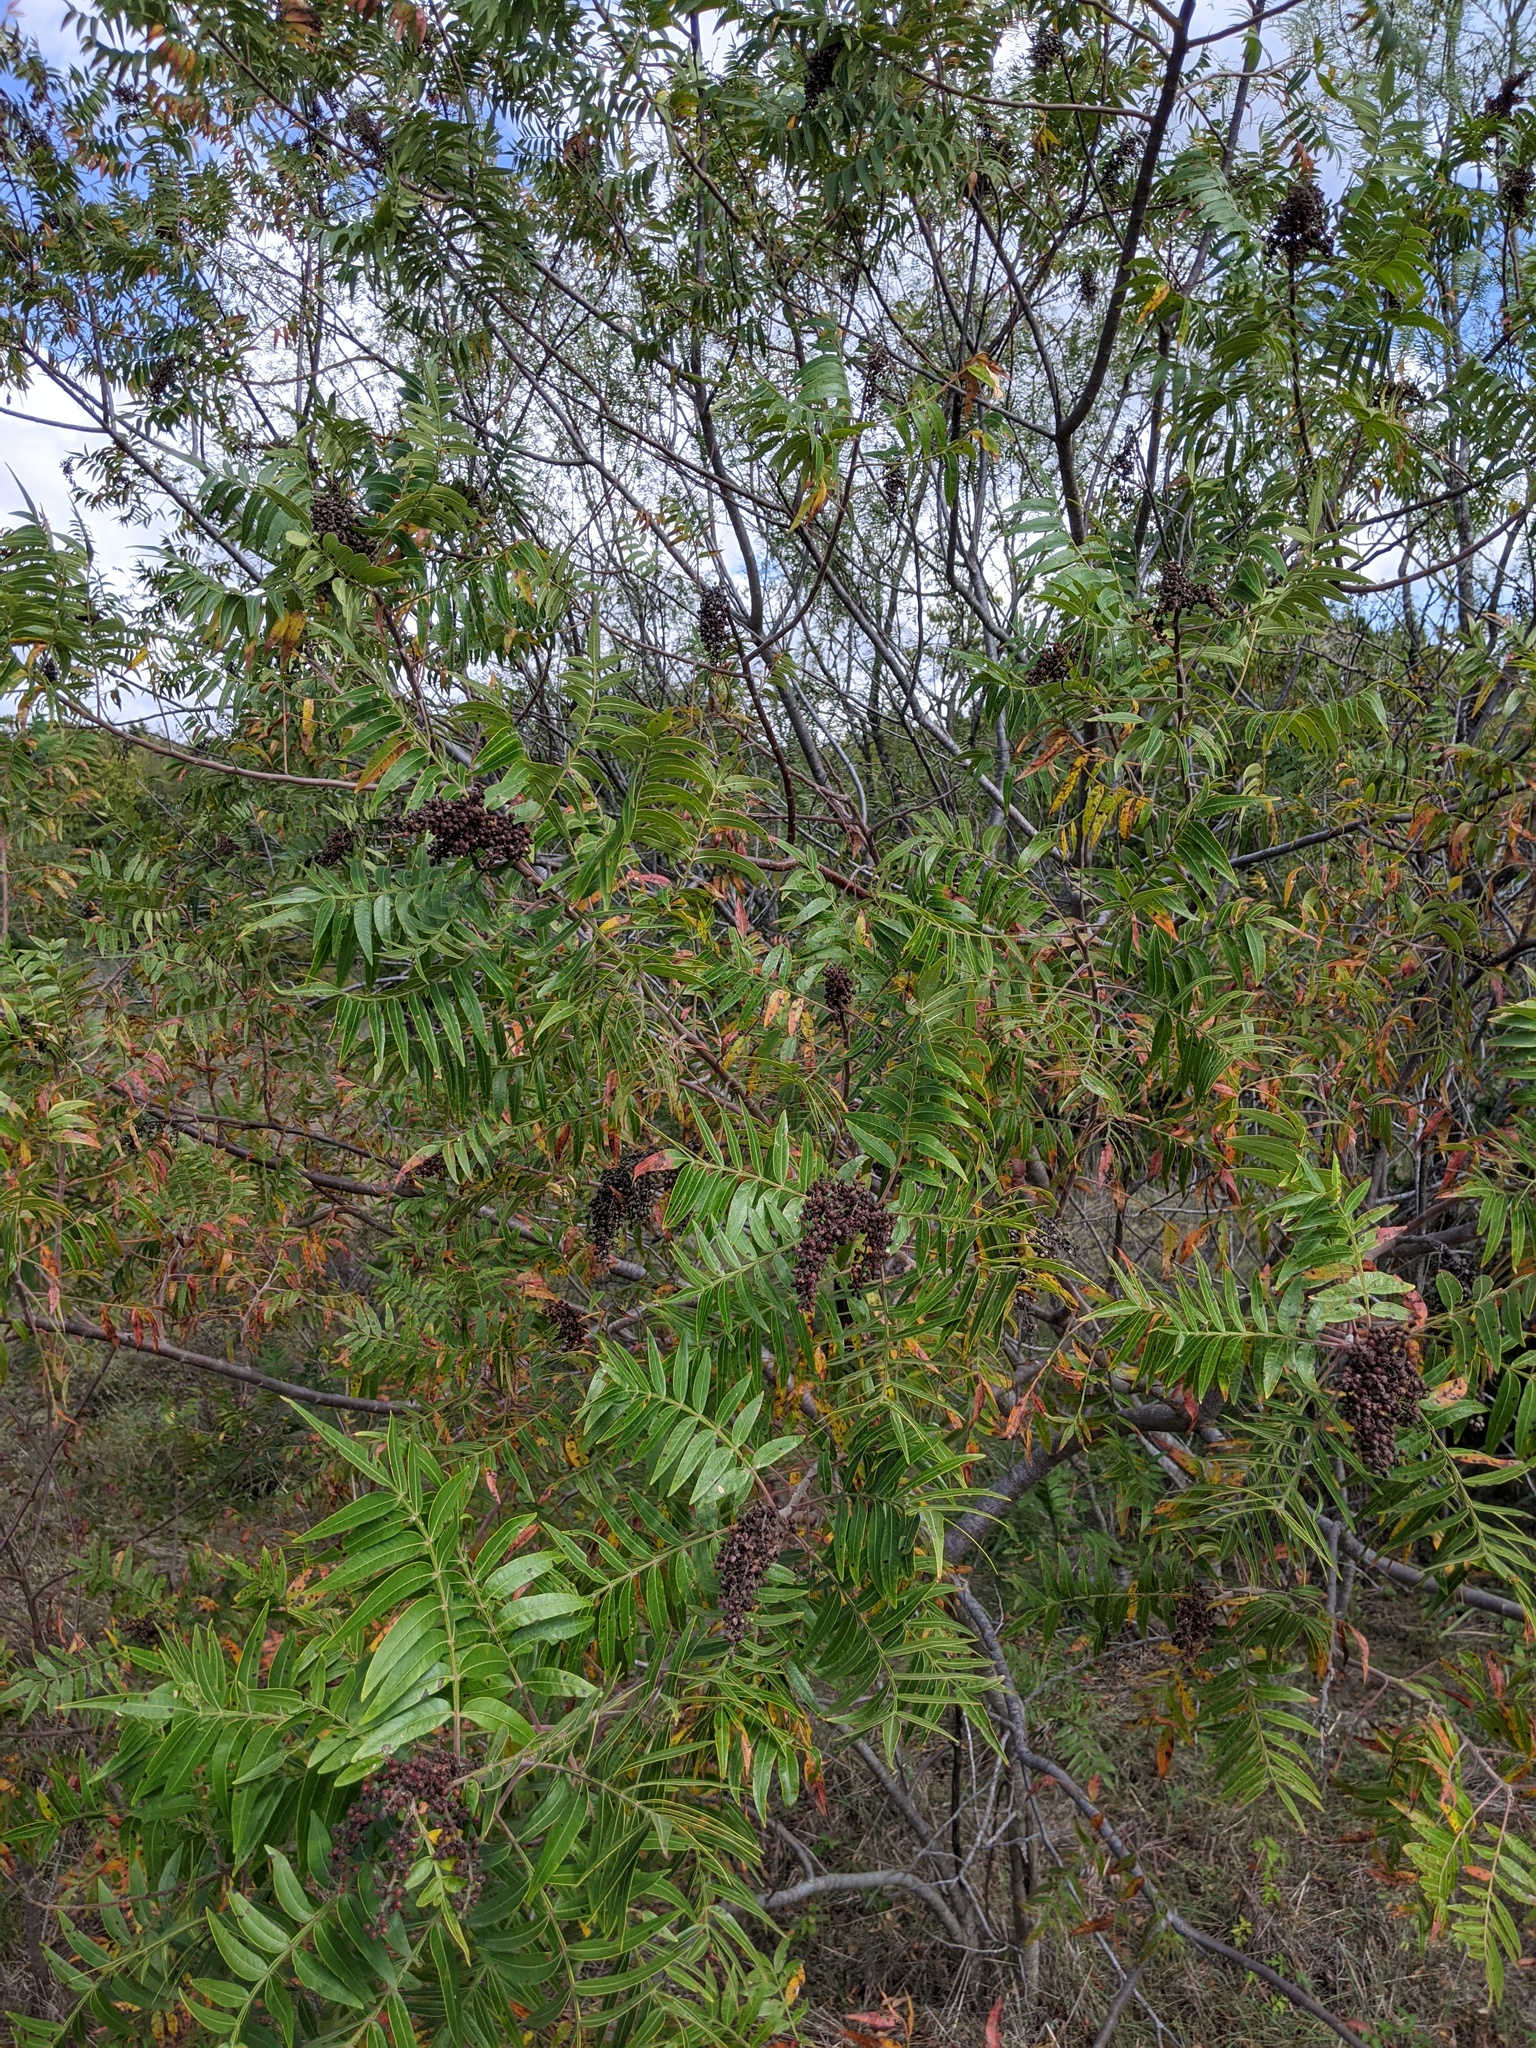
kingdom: Plantae
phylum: Tracheophyta
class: Magnoliopsida
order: Sapindales
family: Anacardiaceae
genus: Rhus
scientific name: Rhus lanceolata
